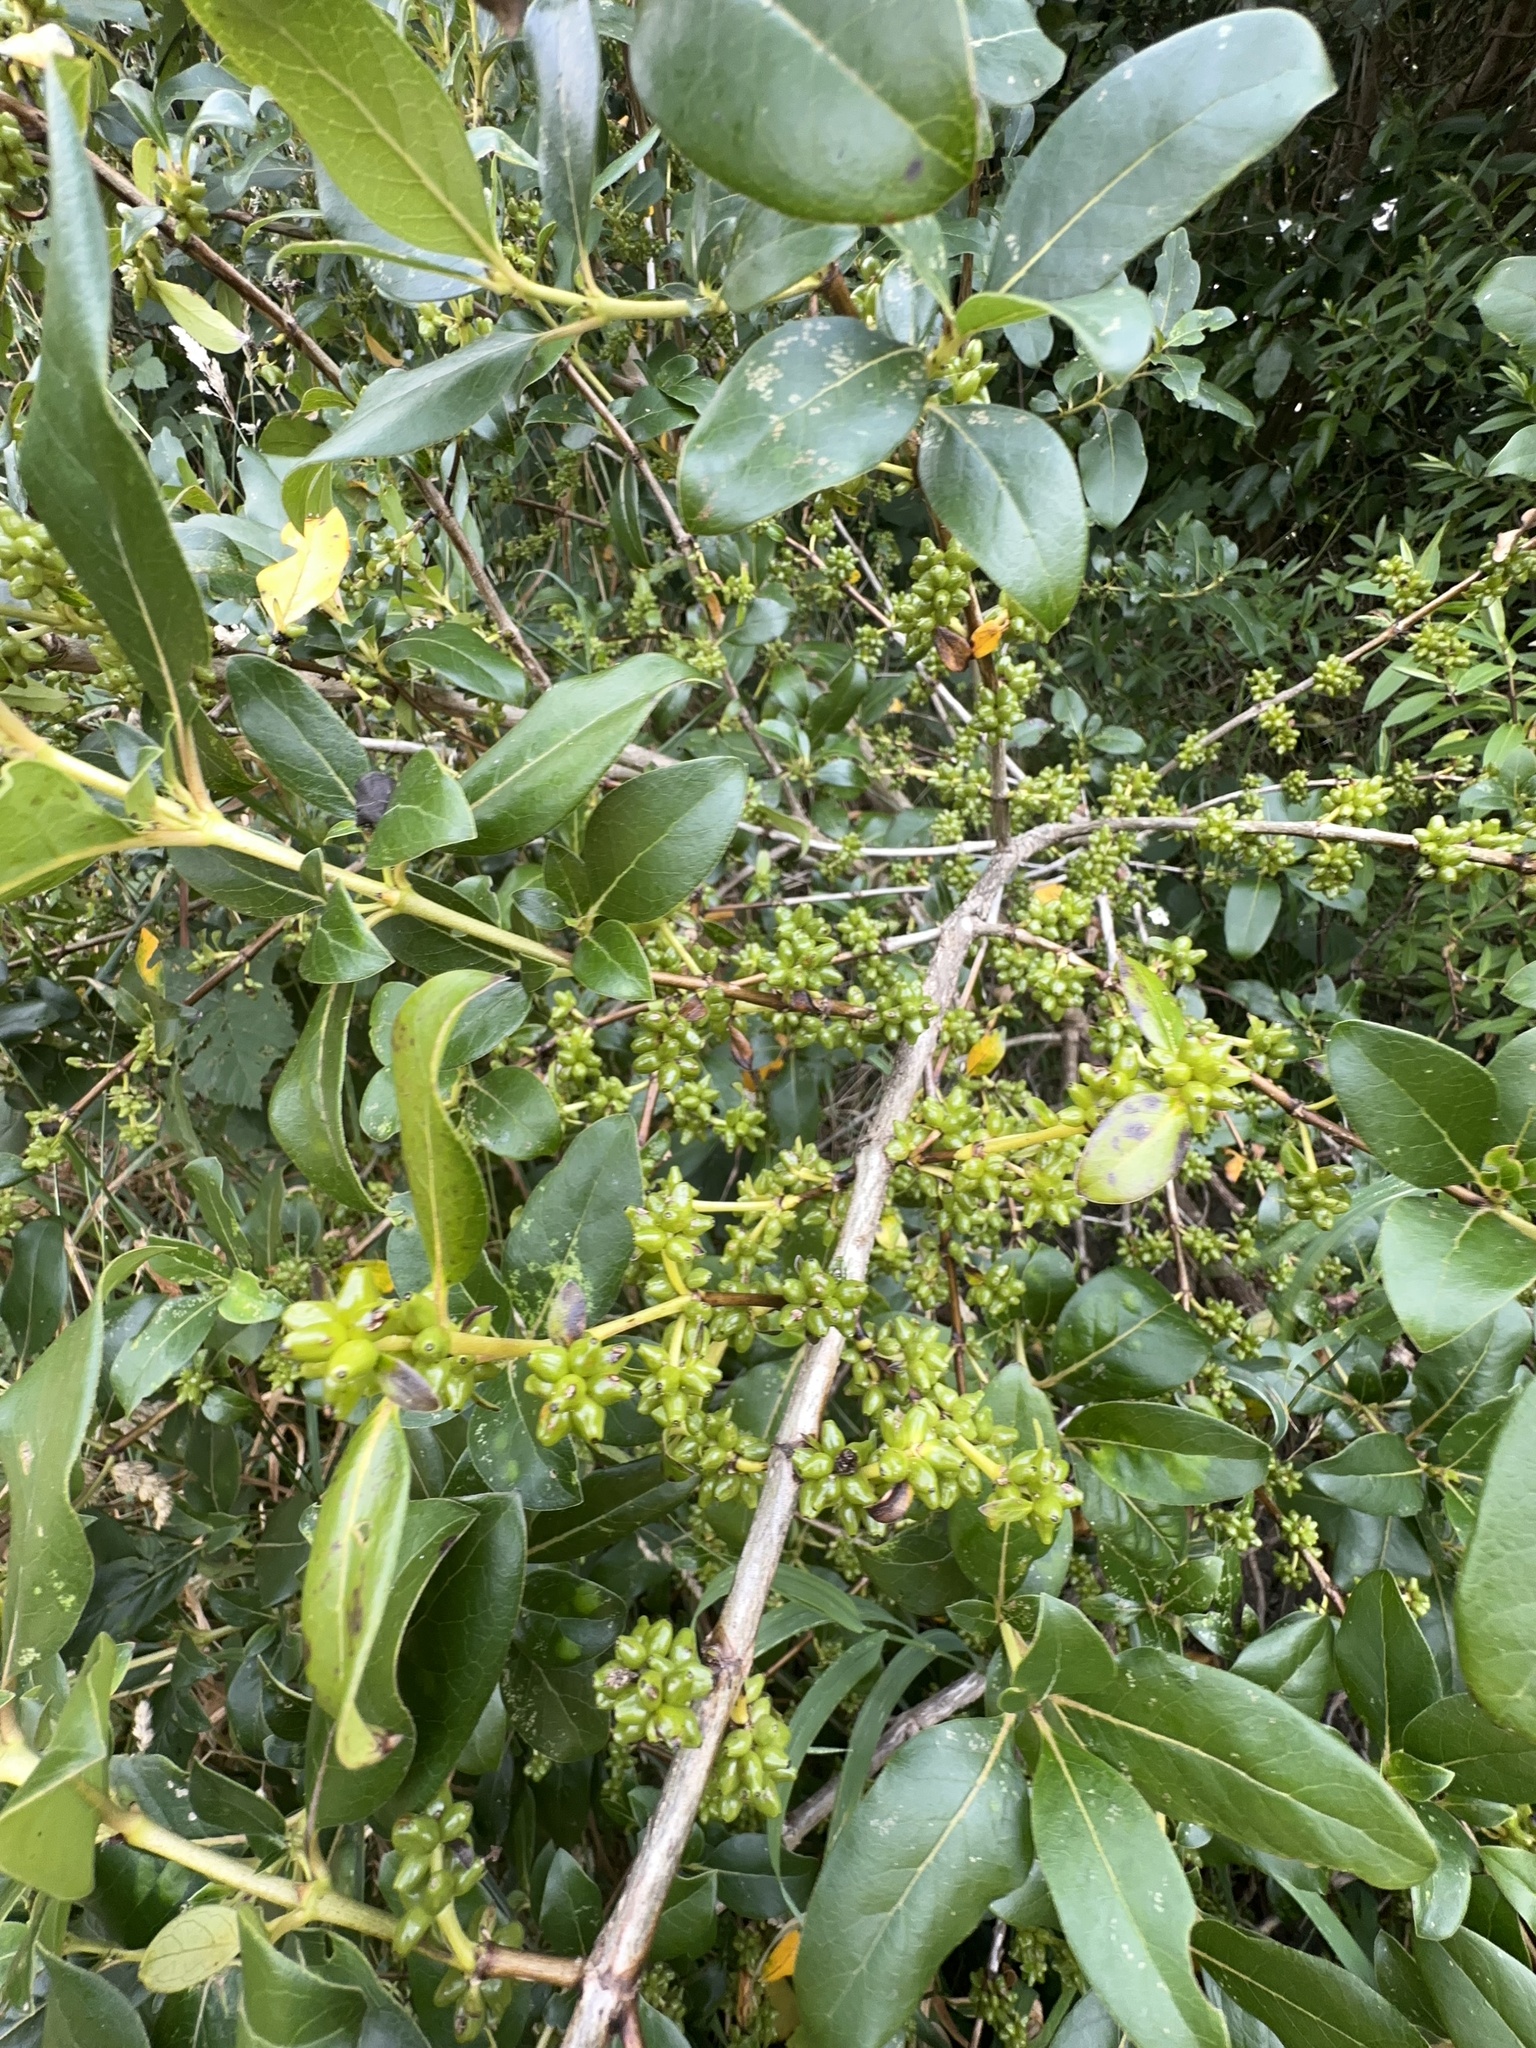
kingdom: Plantae
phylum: Tracheophyta
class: Magnoliopsida
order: Gentianales
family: Rubiaceae
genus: Coprosma
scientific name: Coprosma robusta
